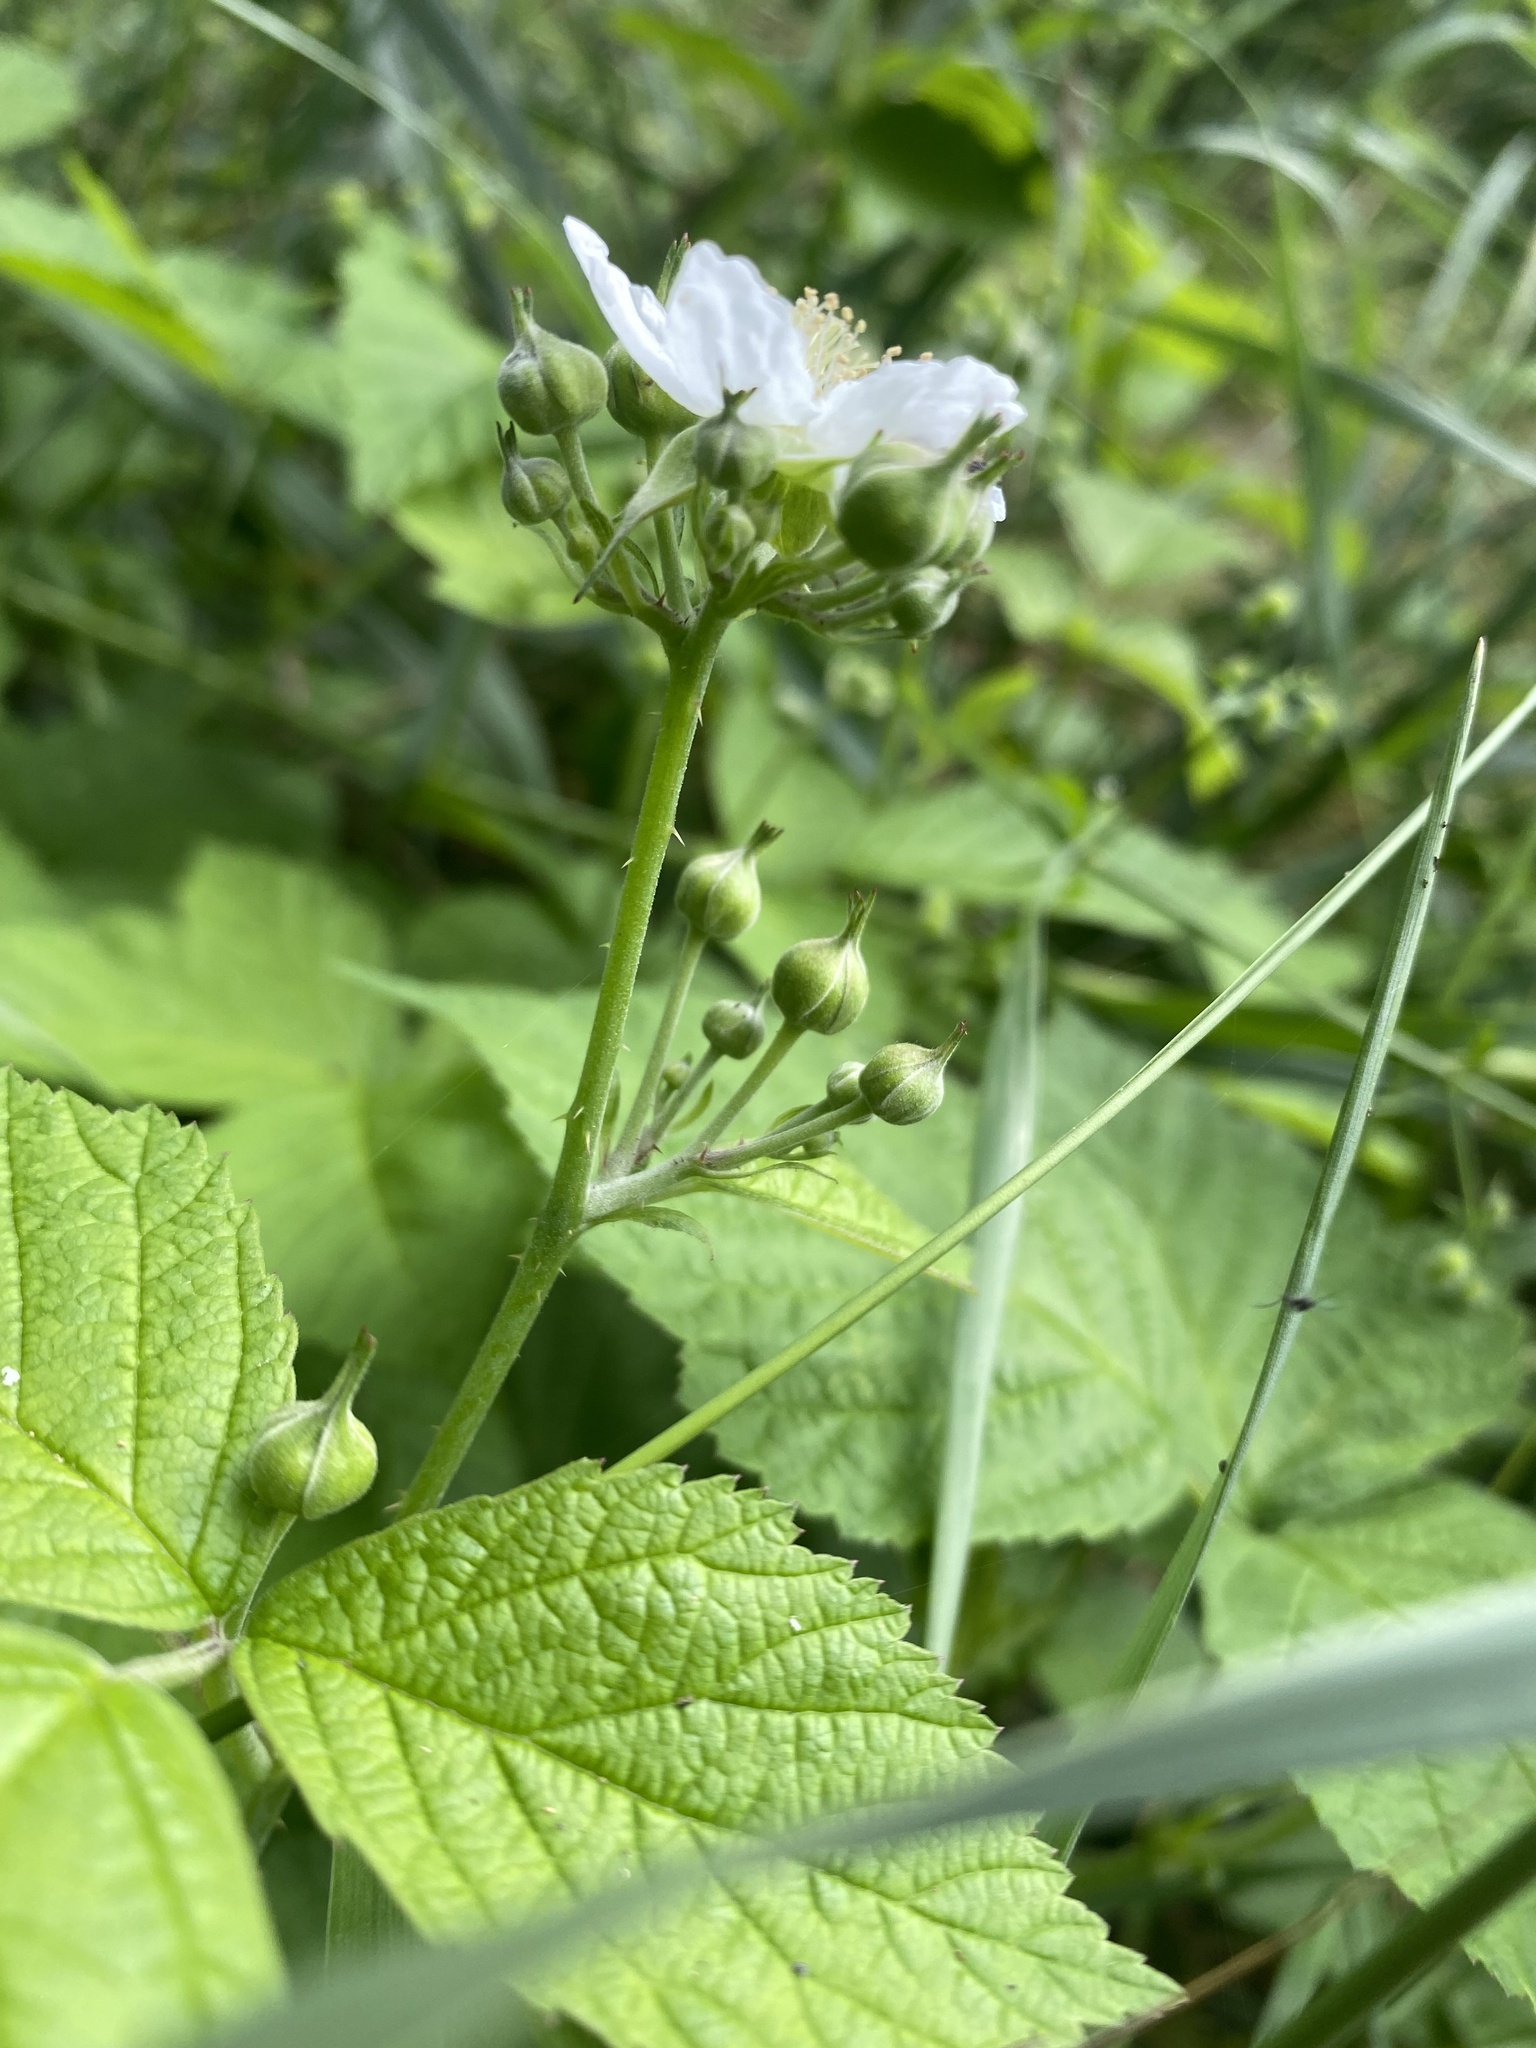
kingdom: Plantae
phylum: Tracheophyta
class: Magnoliopsida
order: Rosales
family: Rosaceae
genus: Rubus
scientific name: Rubus caesius
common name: Dewberry
